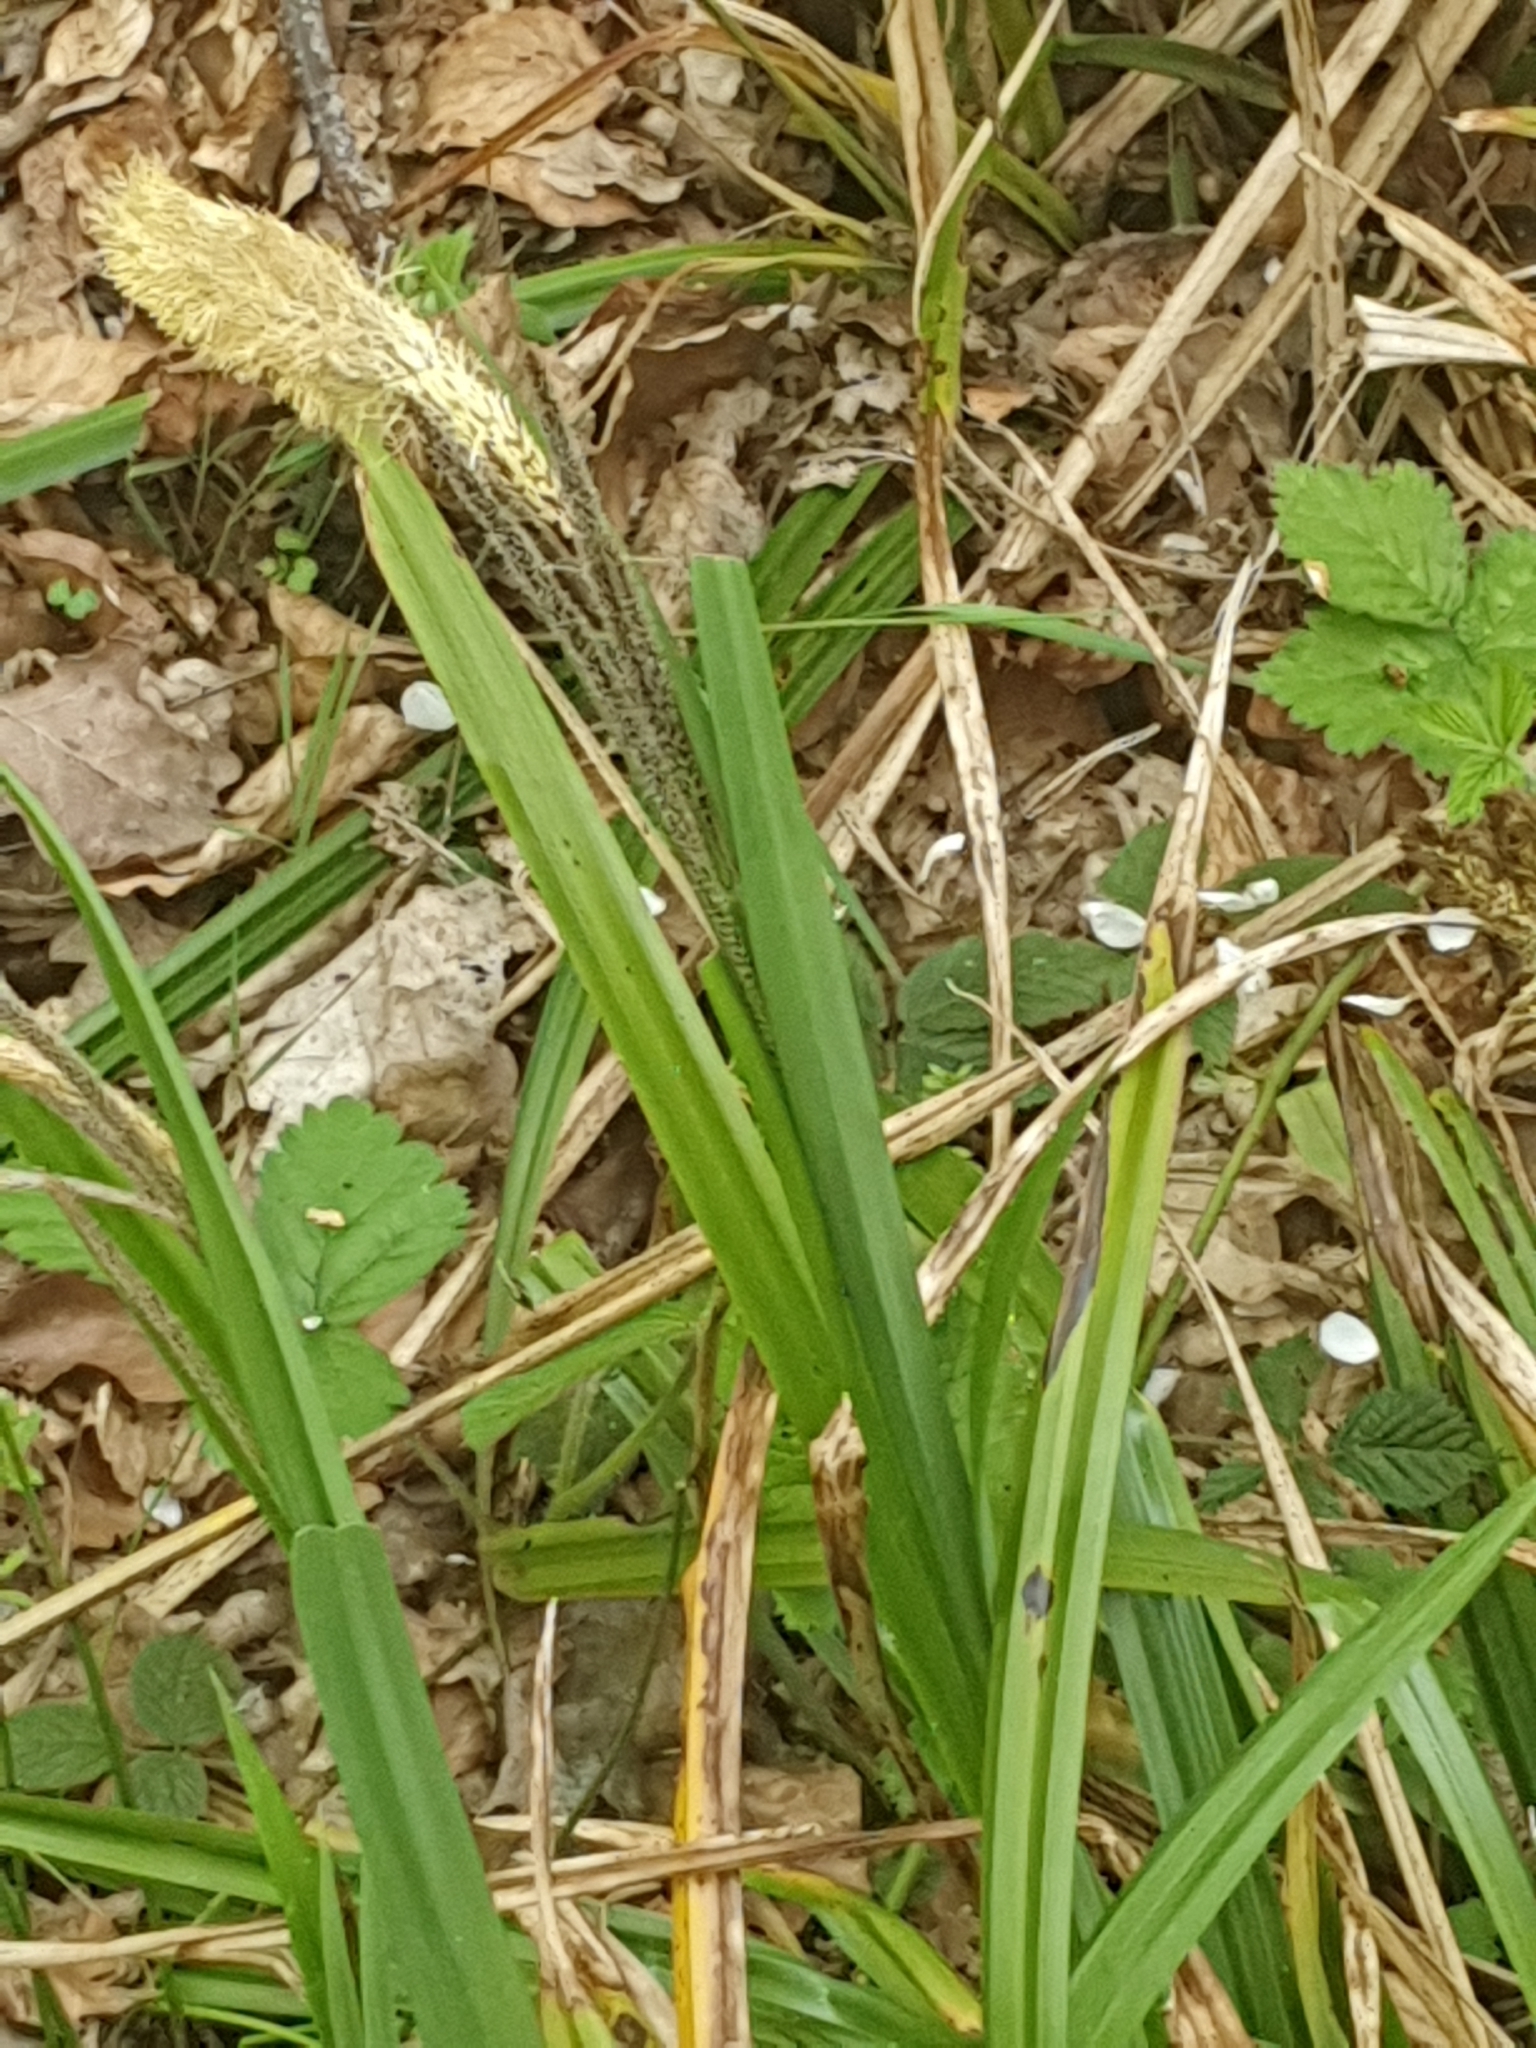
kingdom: Plantae
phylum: Tracheophyta
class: Liliopsida
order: Poales
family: Cyperaceae
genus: Carex
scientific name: Carex pendula
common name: Pendulous sedge
